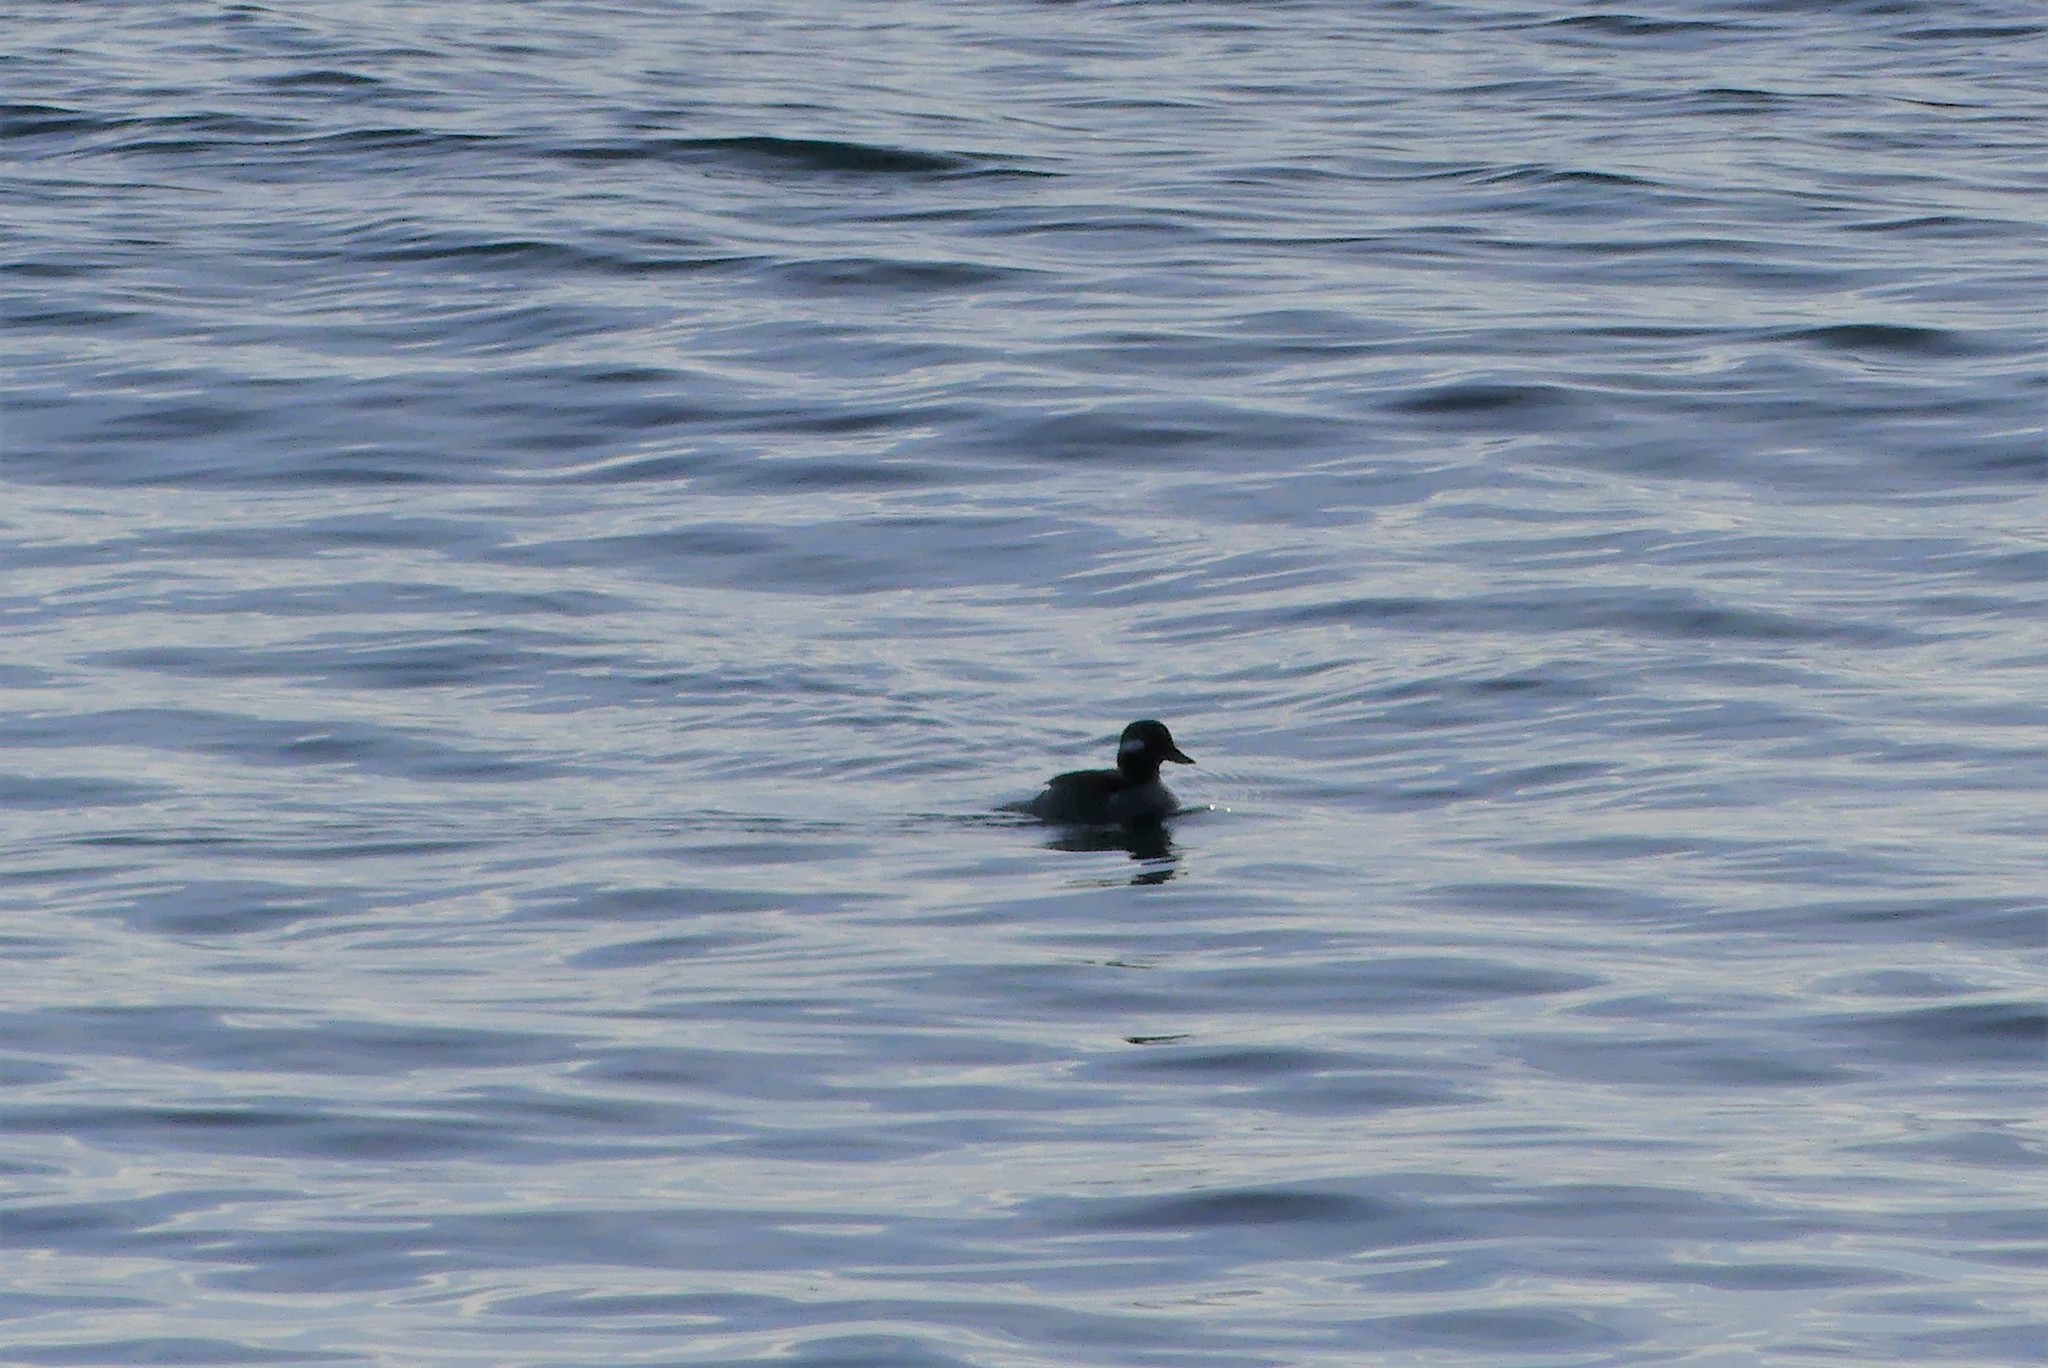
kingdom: Animalia
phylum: Chordata
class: Aves
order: Anseriformes
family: Anatidae
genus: Bucephala
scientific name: Bucephala albeola
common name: Bufflehead
